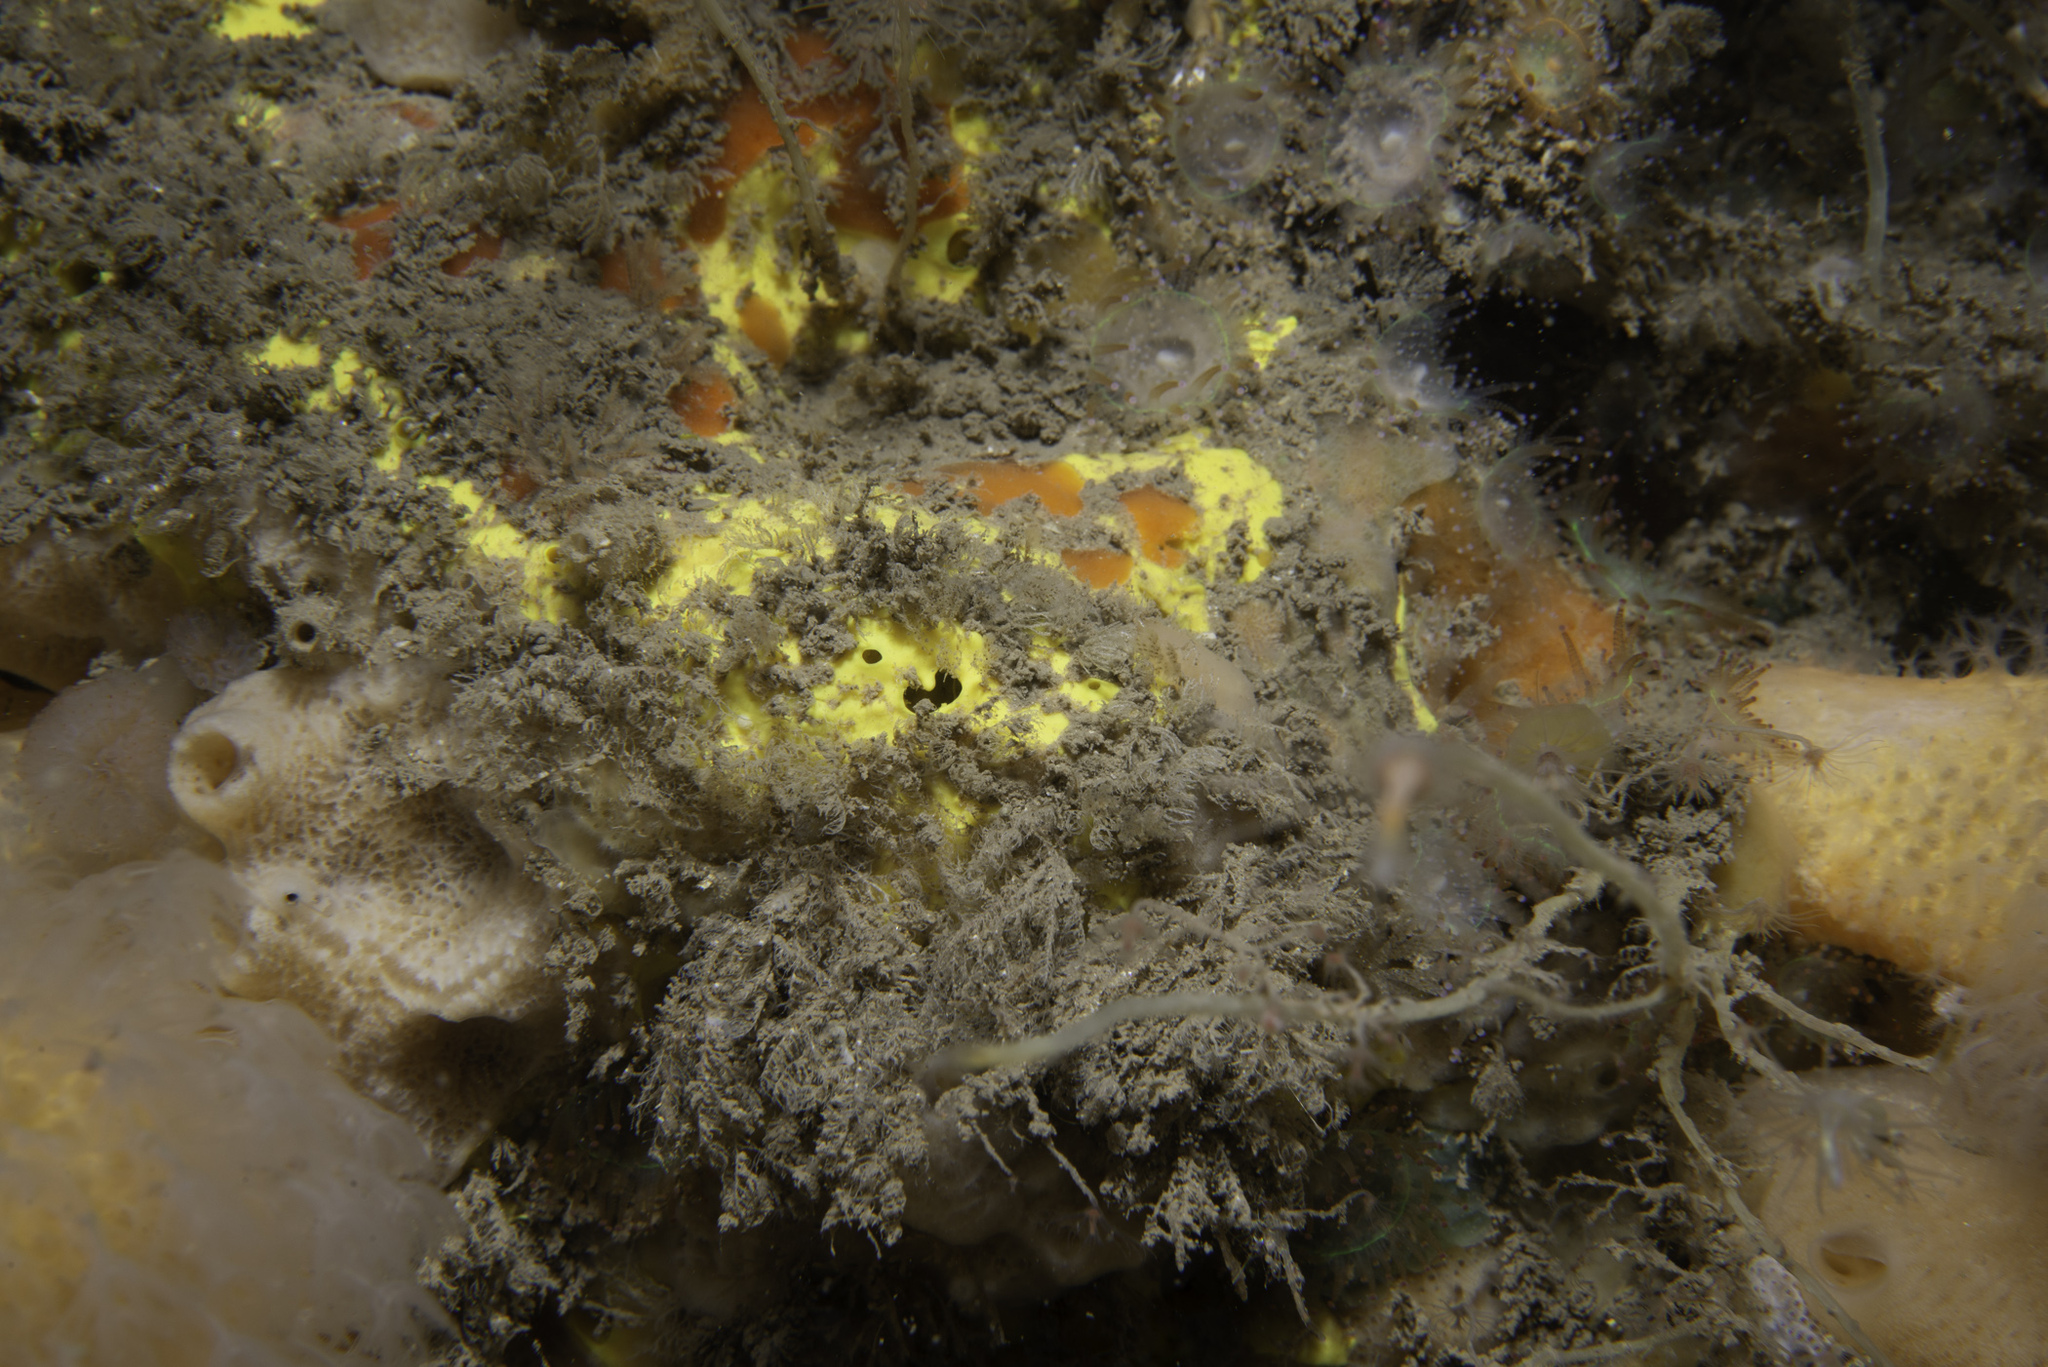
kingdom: Animalia
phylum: Porifera
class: Demospongiae
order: Suberitida
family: Halichondriidae
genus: Spongosorites
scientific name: Spongosorites calcicola
